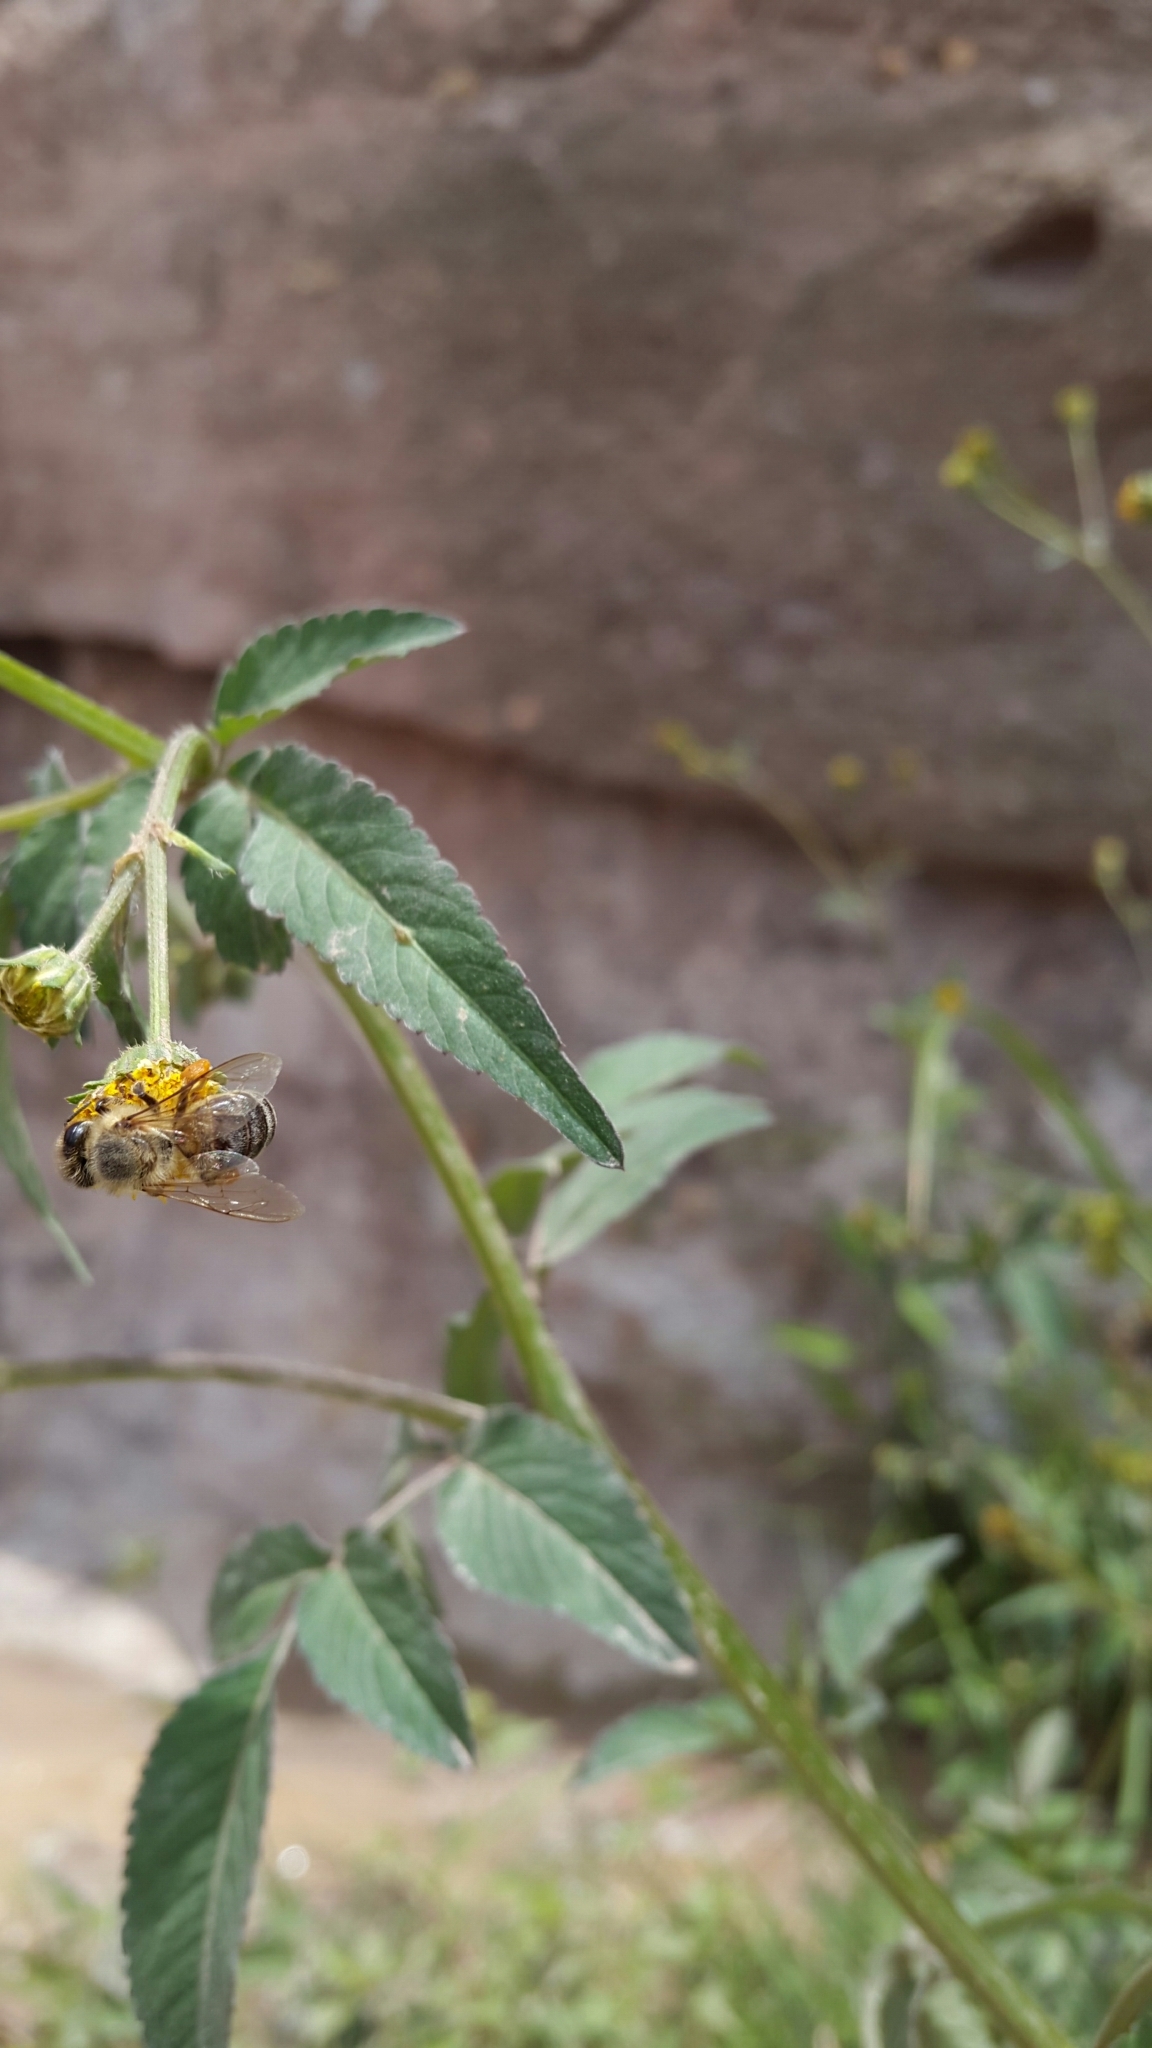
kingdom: Animalia
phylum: Arthropoda
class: Insecta
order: Hymenoptera
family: Apidae
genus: Apis
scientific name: Apis mellifera
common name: Honey bee
